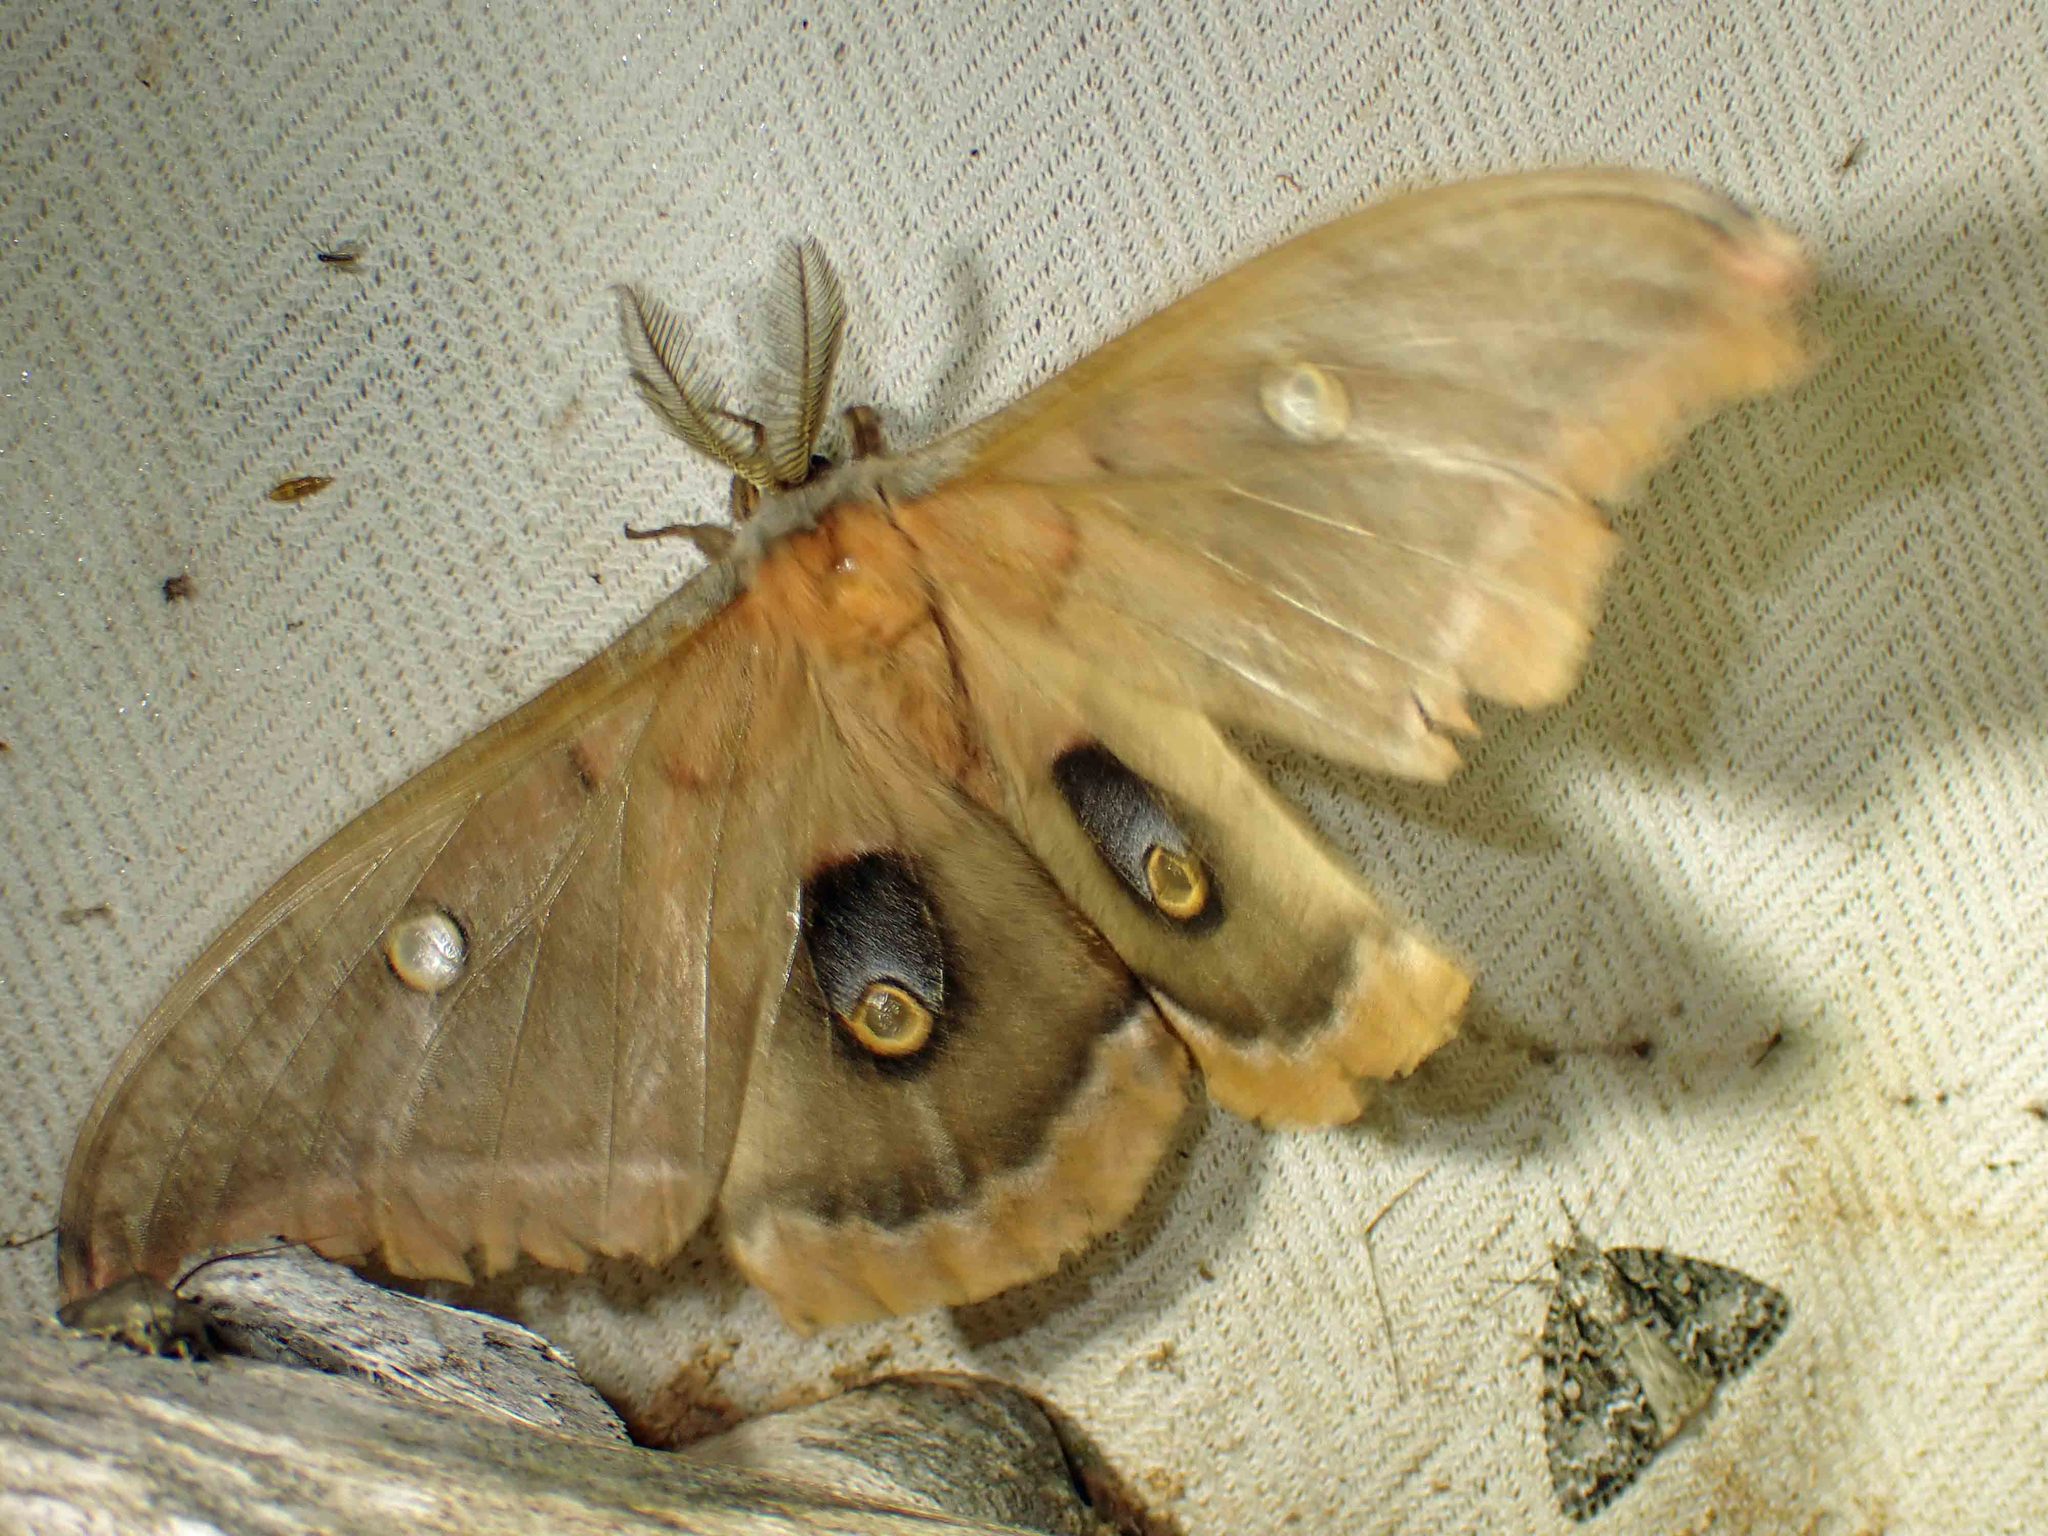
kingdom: Animalia
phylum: Arthropoda
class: Insecta
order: Lepidoptera
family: Saturniidae
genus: Antheraea
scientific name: Antheraea polyphemus
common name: Polyphemus moth
